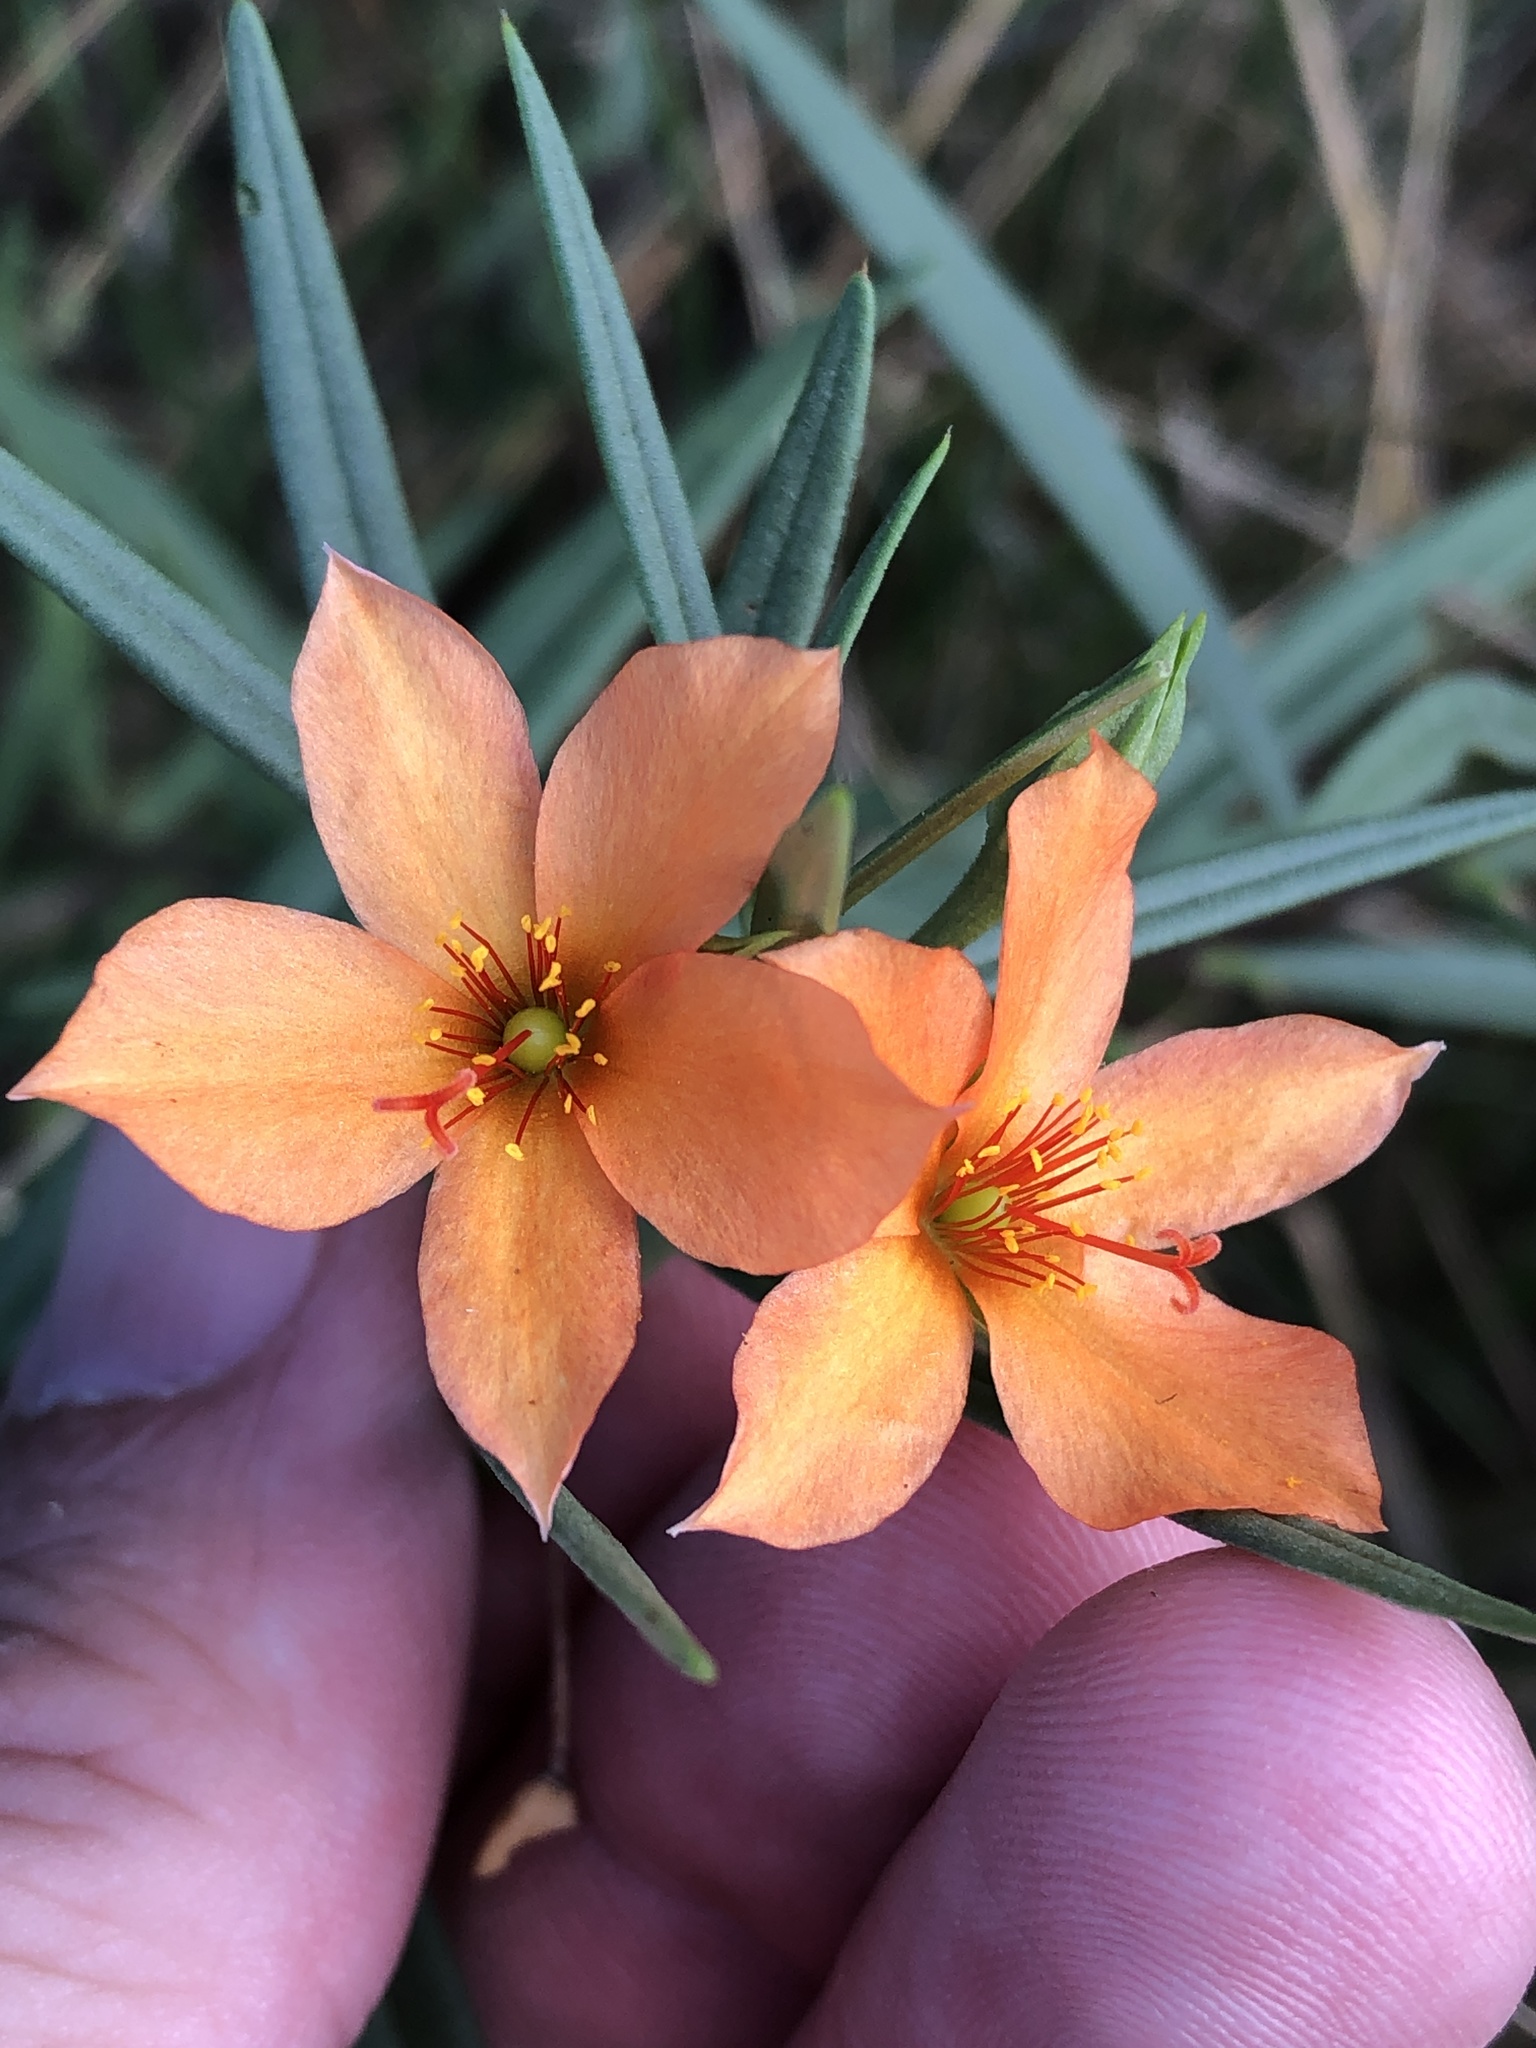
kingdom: Plantae
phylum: Tracheophyta
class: Magnoliopsida
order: Caryophyllales
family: Montiaceae
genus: Phemeranthus
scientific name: Phemeranthus aurantiacus
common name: Orange fameflower
